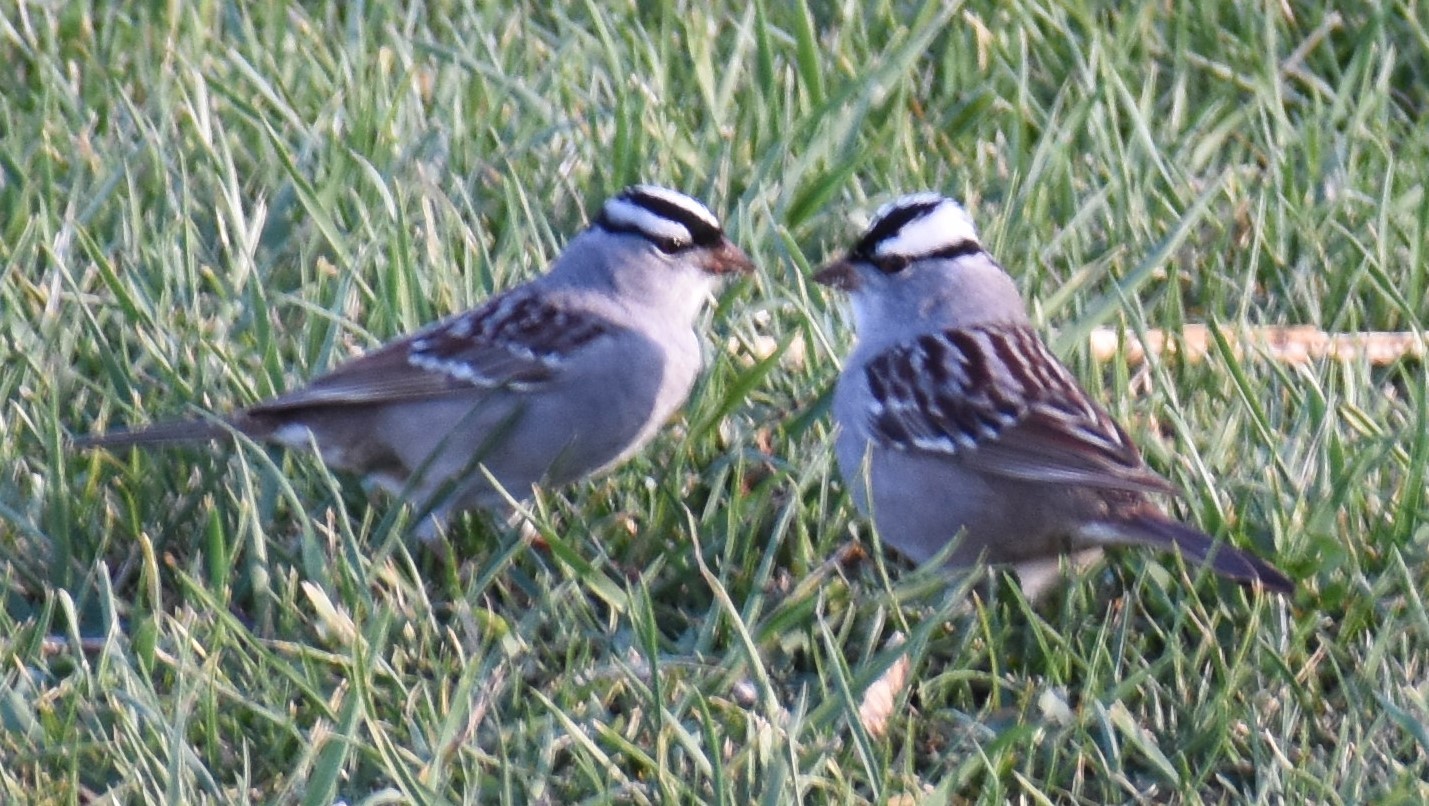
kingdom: Animalia
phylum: Chordata
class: Aves
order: Passeriformes
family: Passerellidae
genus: Zonotrichia
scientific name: Zonotrichia leucophrys
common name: White-crowned sparrow
